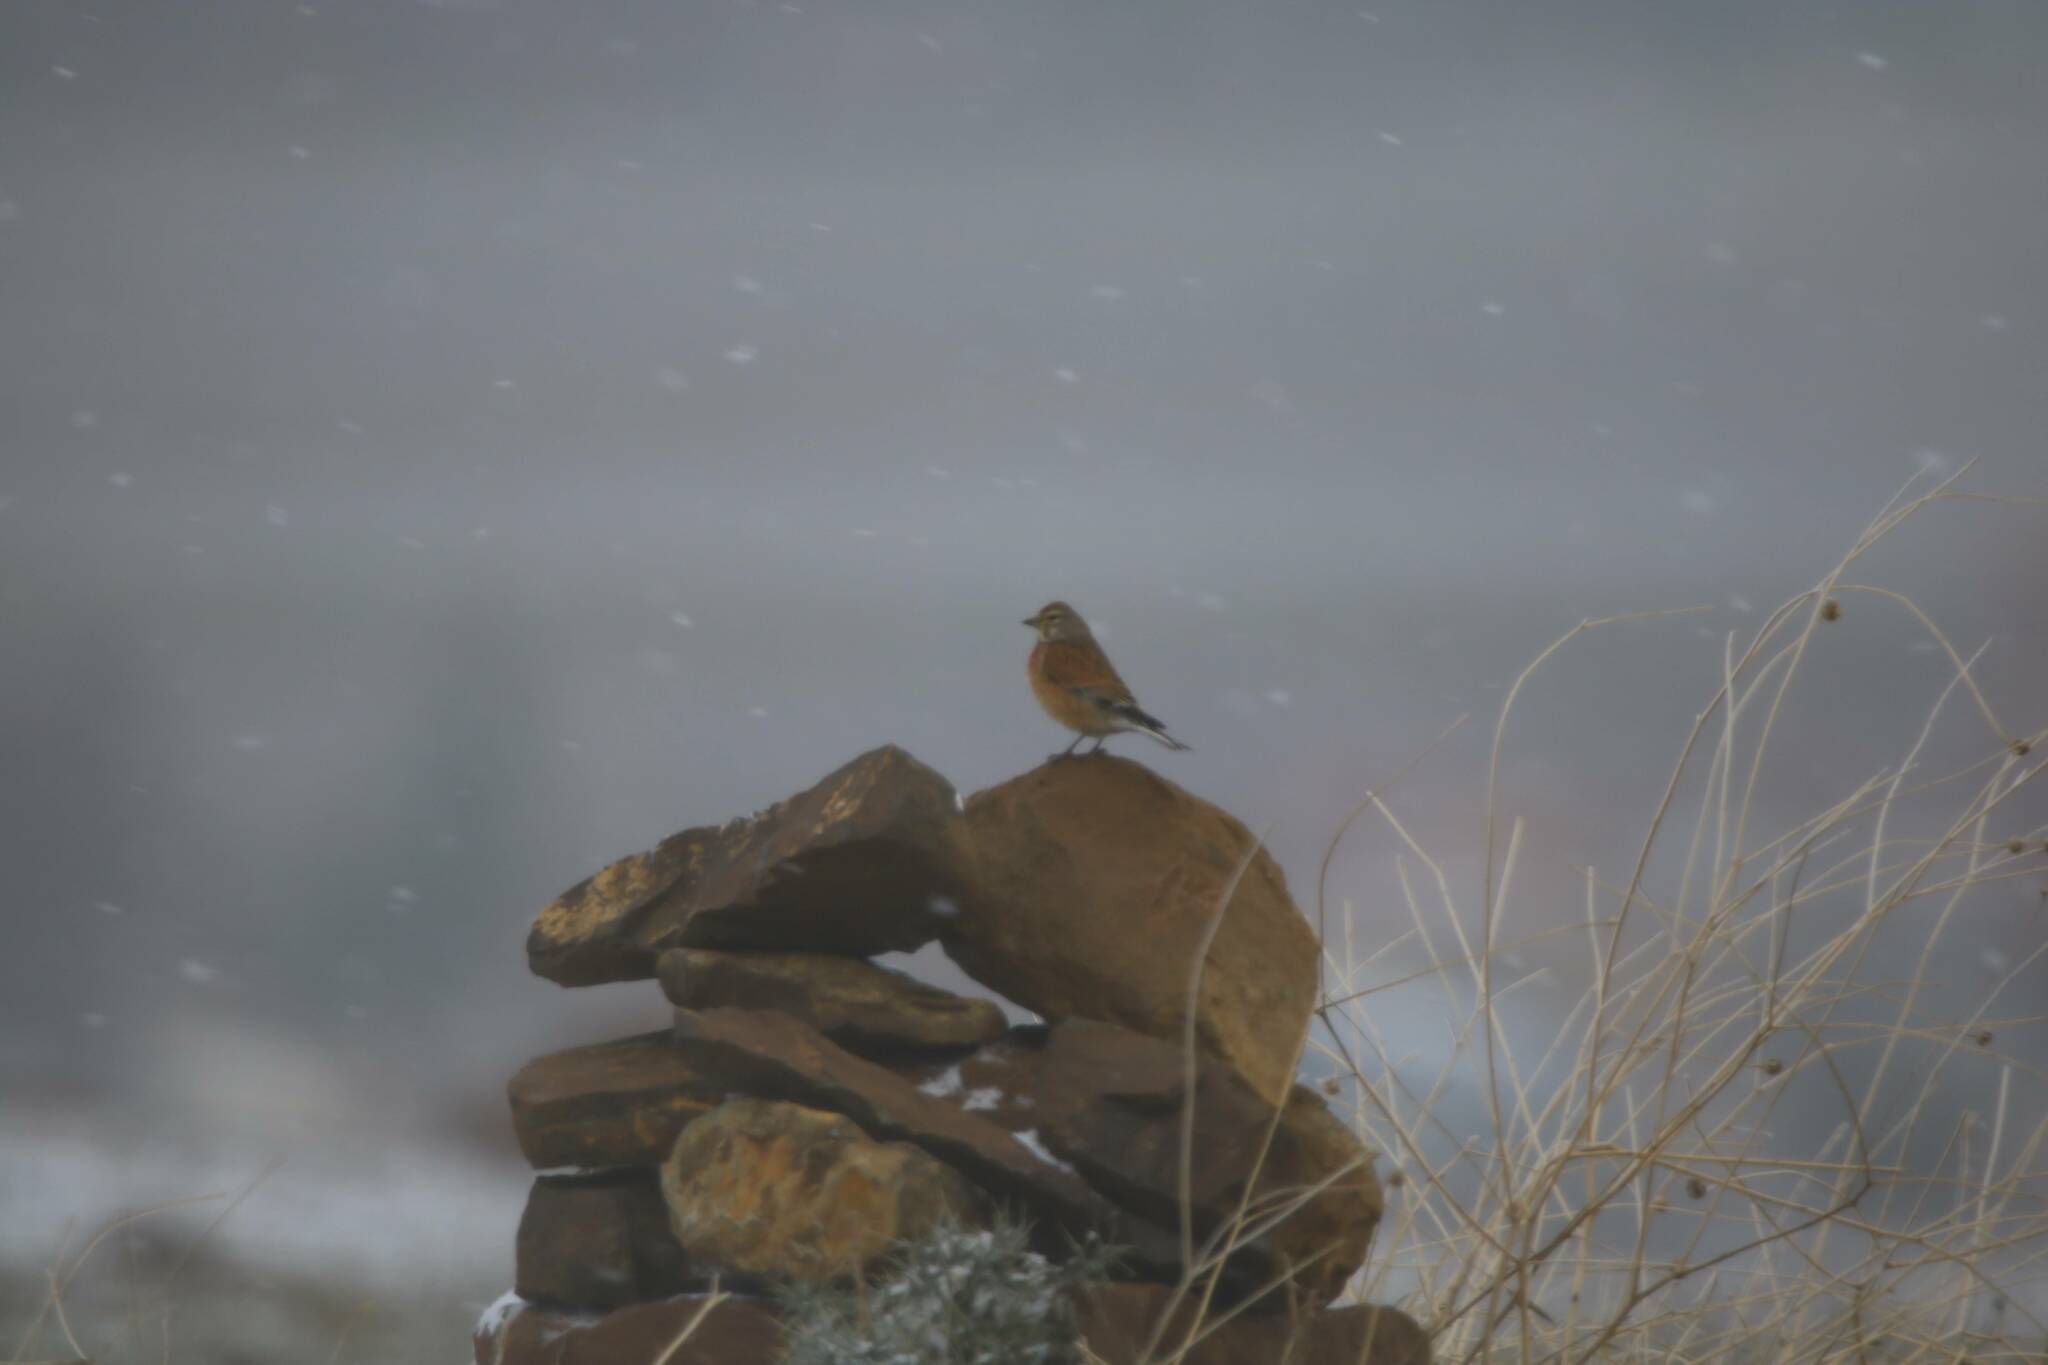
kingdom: Animalia
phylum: Chordata
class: Aves
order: Passeriformes
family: Fringillidae
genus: Linaria
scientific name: Linaria cannabina
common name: Common linnet
